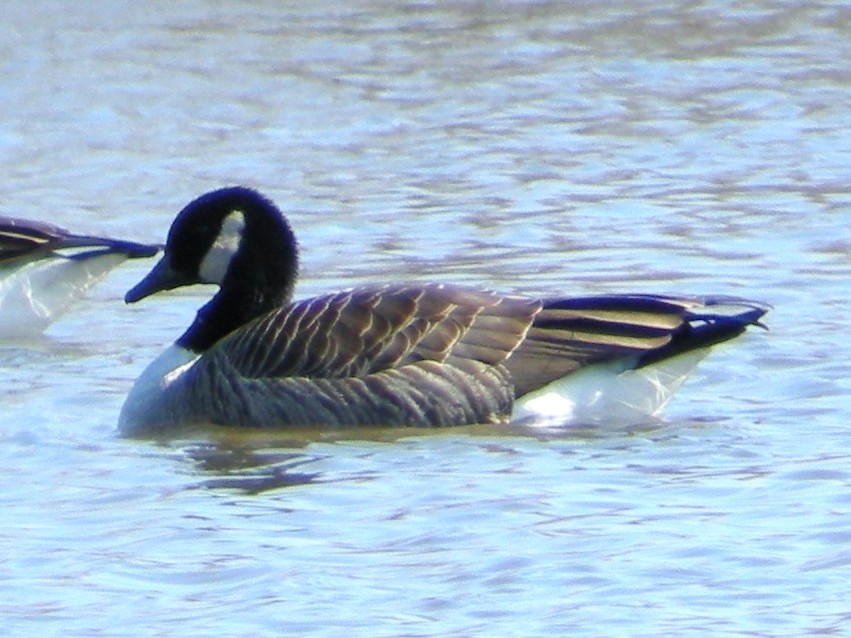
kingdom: Animalia
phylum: Chordata
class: Aves
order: Anseriformes
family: Anatidae
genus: Branta
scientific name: Branta canadensis
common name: Canada goose
